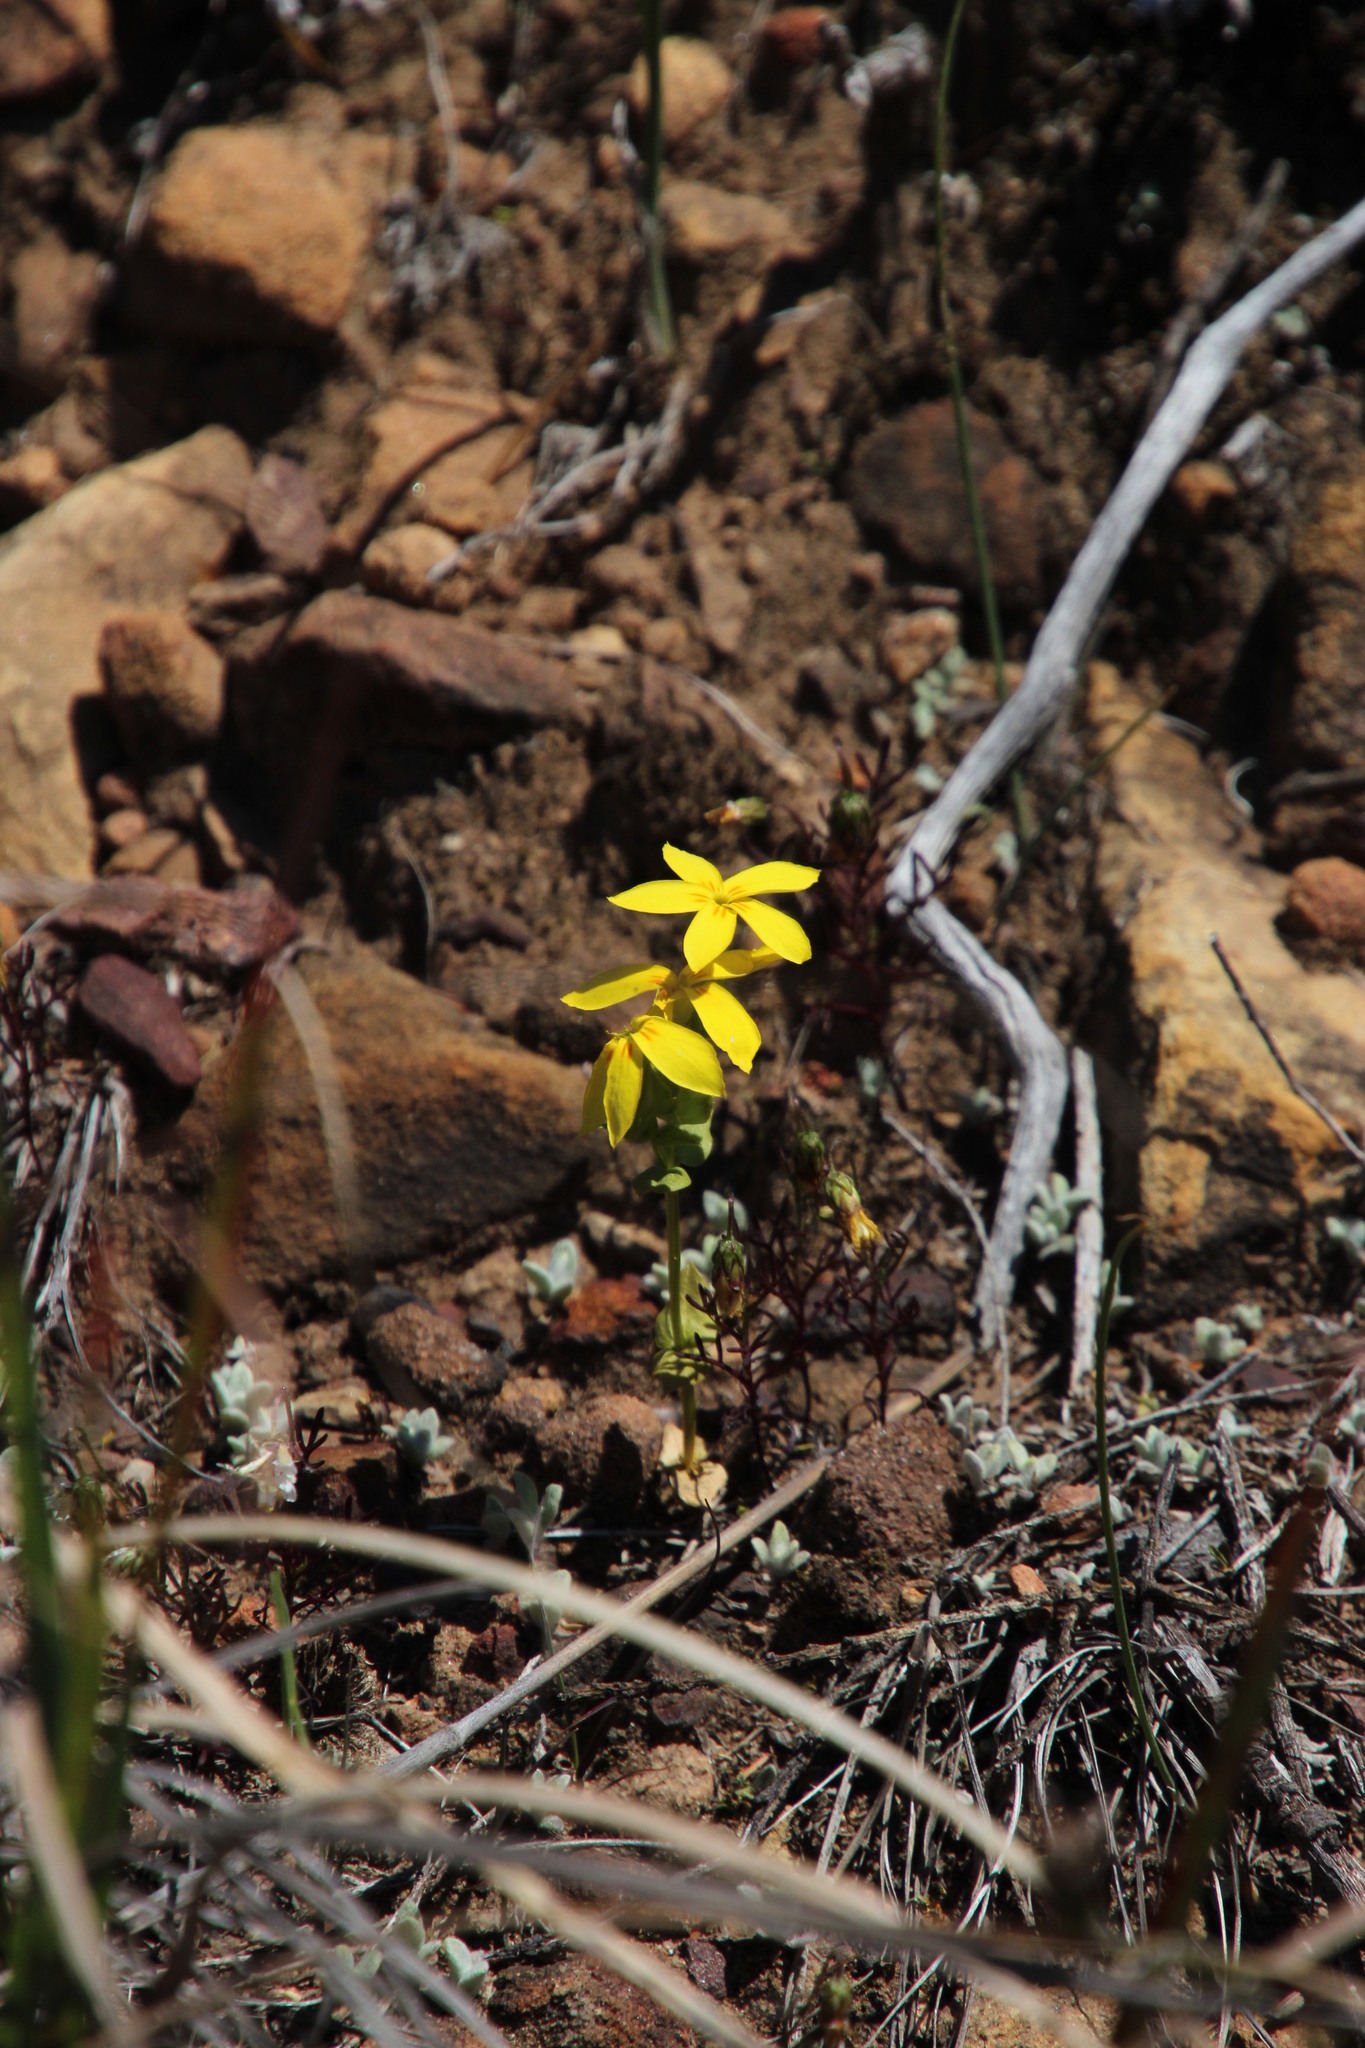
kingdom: Plantae
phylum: Tracheophyta
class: Magnoliopsida
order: Gentianales
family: Gentianaceae
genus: Sebaea
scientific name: Sebaea exacoides
